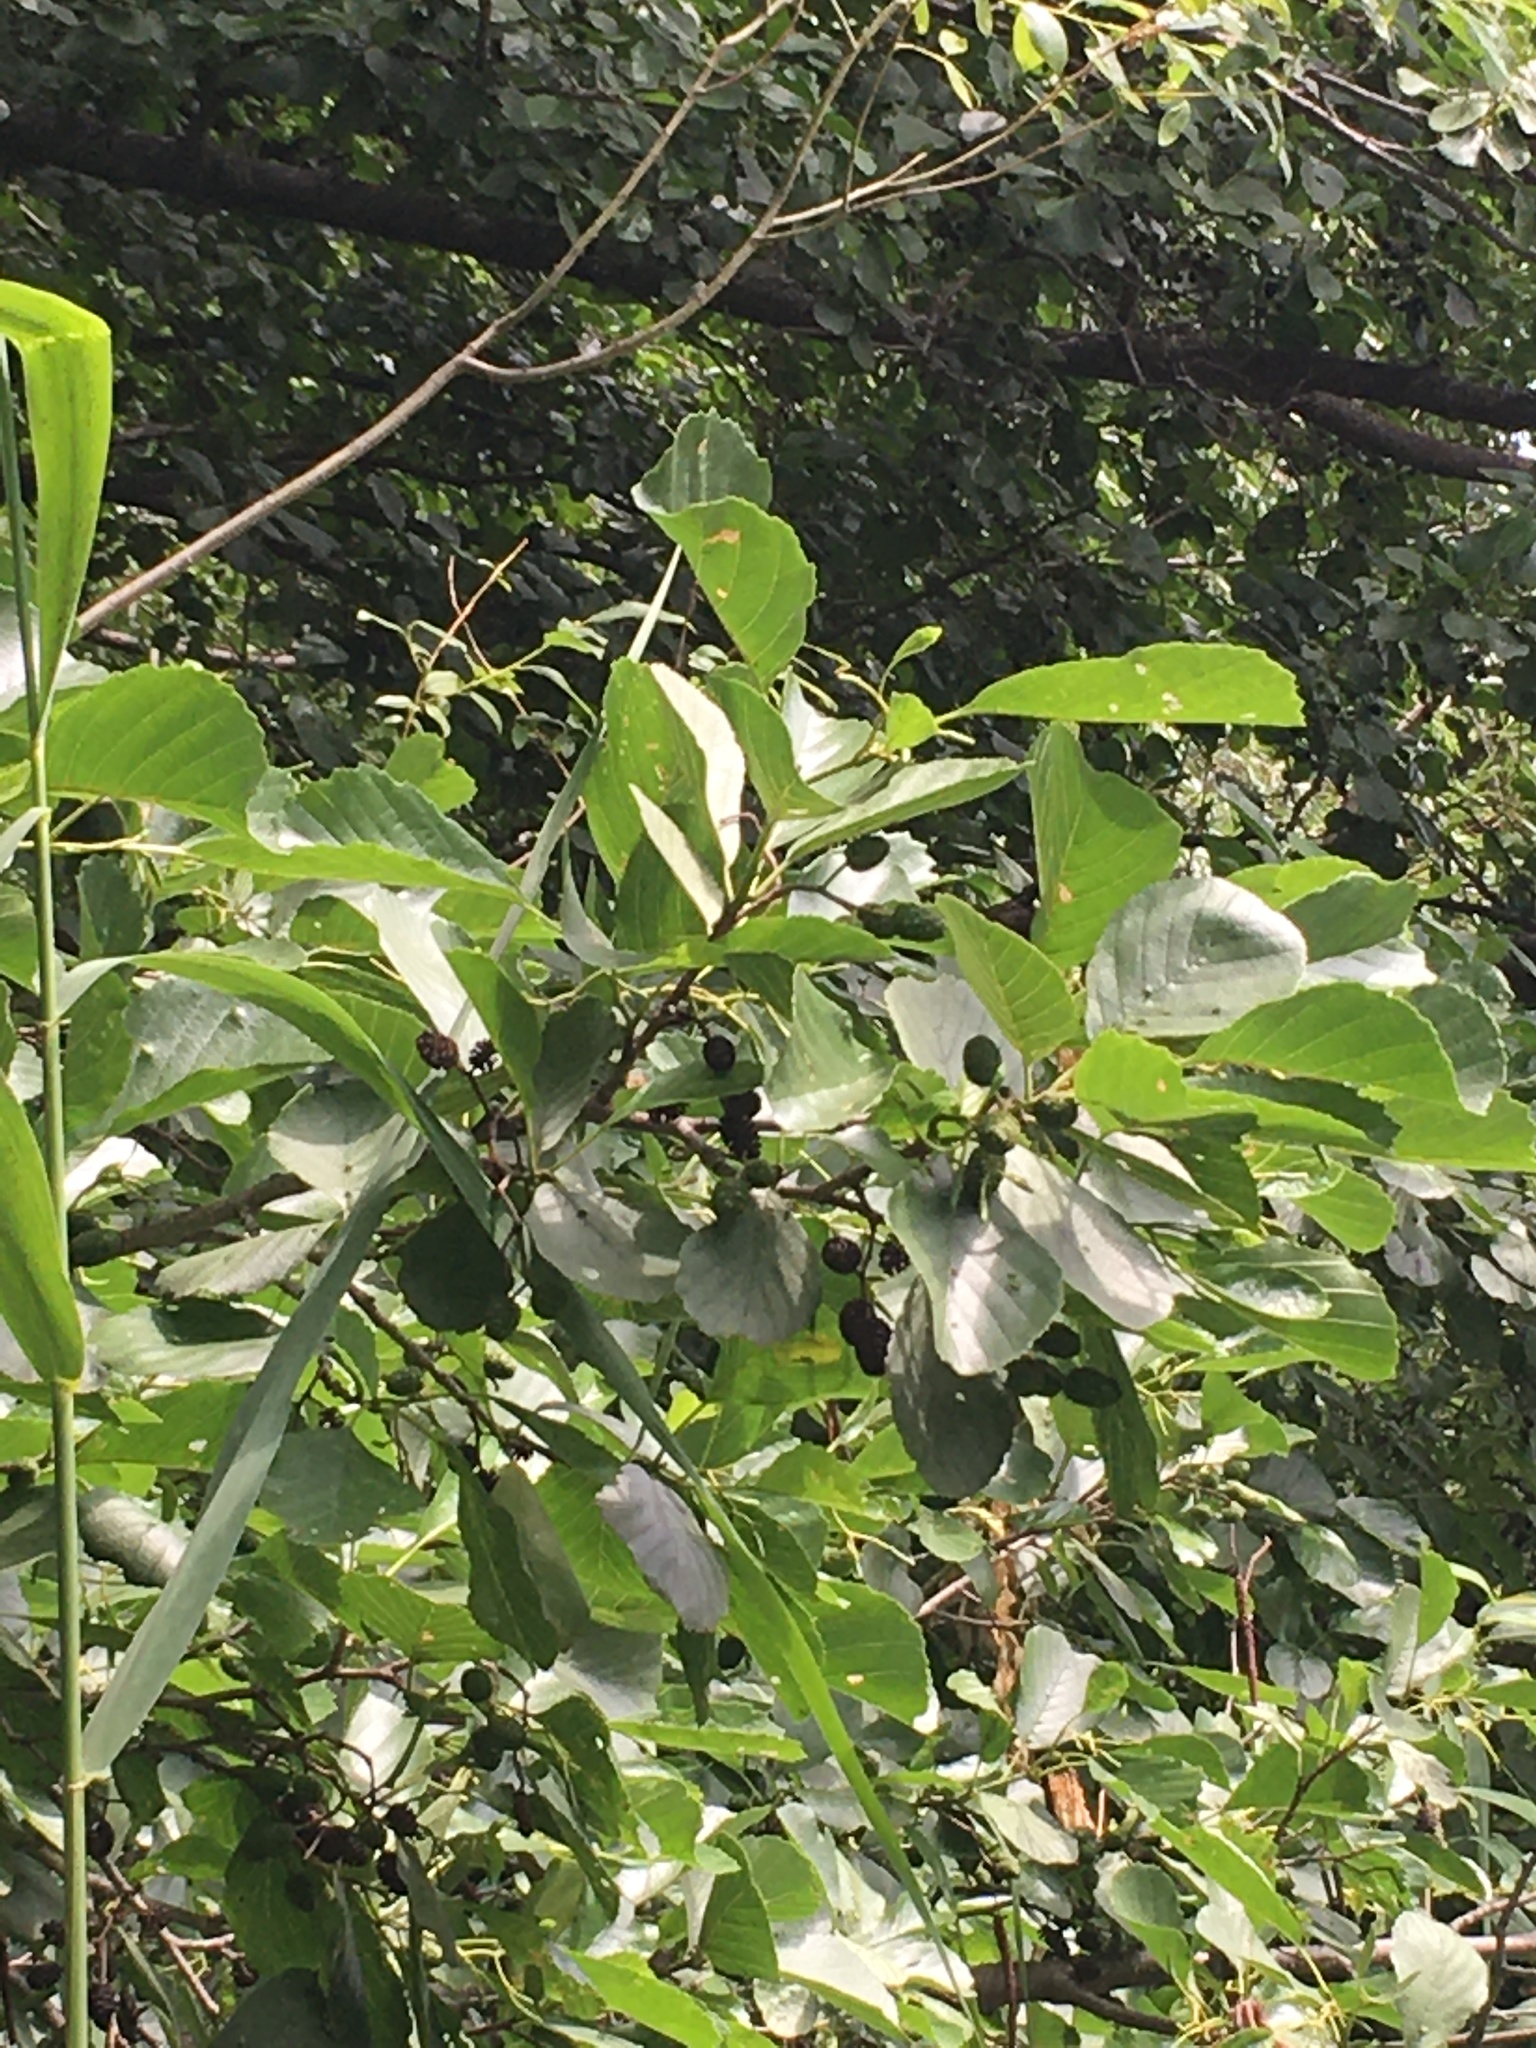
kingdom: Plantae
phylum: Tracheophyta
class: Magnoliopsida
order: Fagales
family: Betulaceae
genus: Alnus
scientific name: Alnus glutinosa
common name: Black alder
